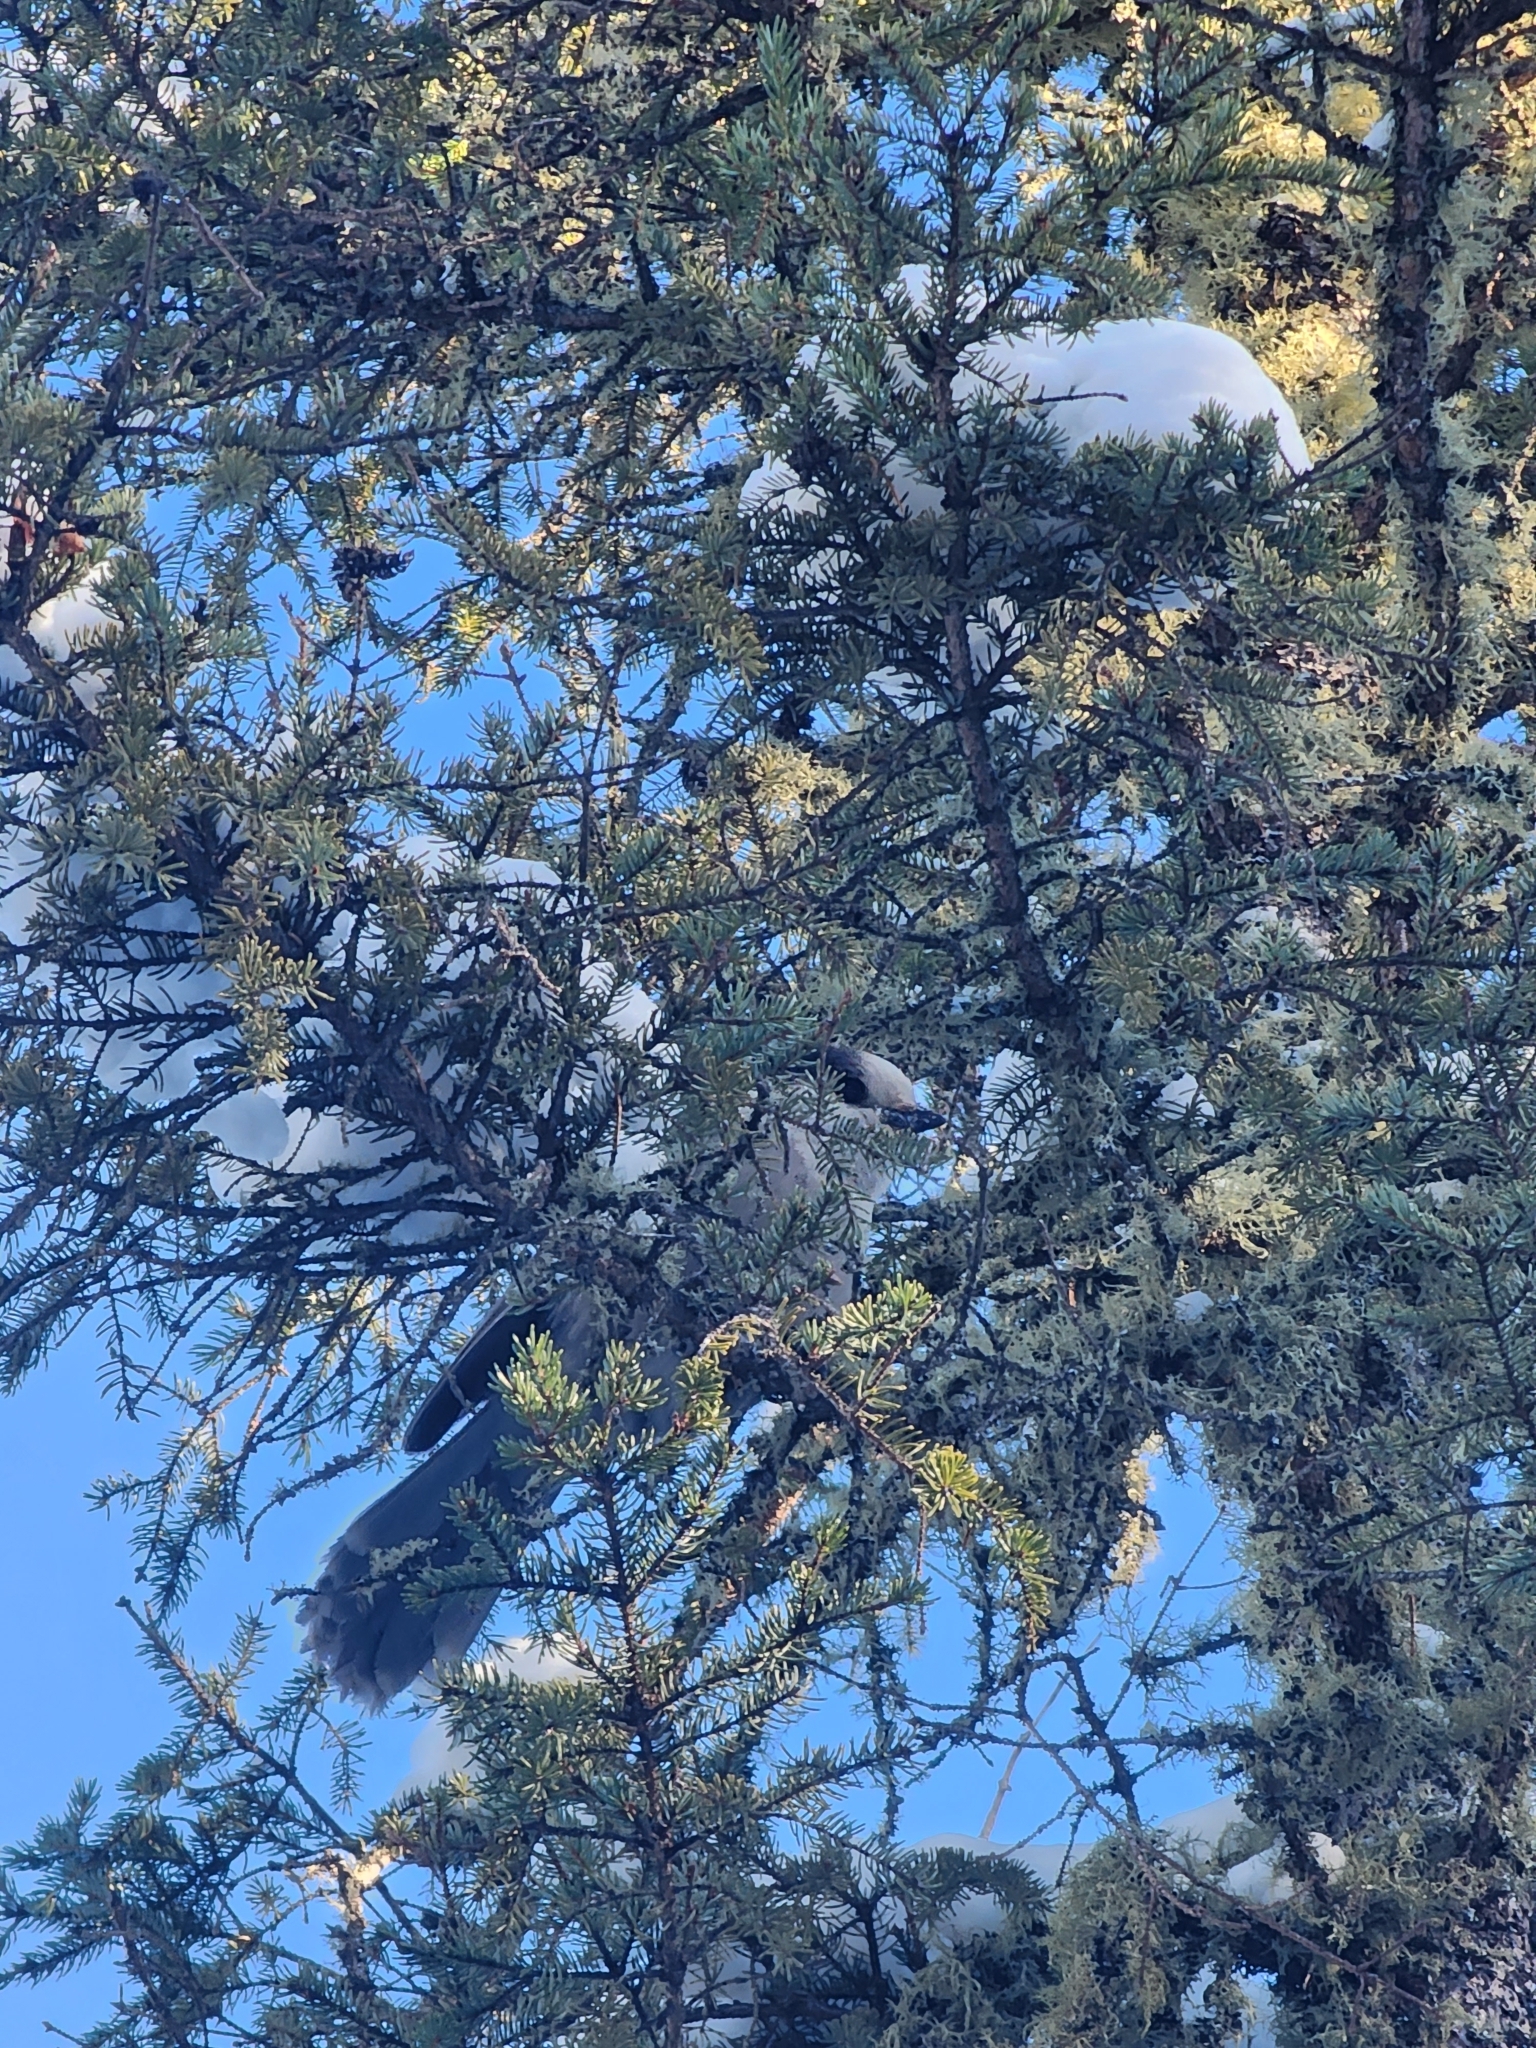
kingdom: Animalia
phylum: Chordata
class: Aves
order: Passeriformes
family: Corvidae
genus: Perisoreus
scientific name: Perisoreus canadensis
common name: Gray jay
